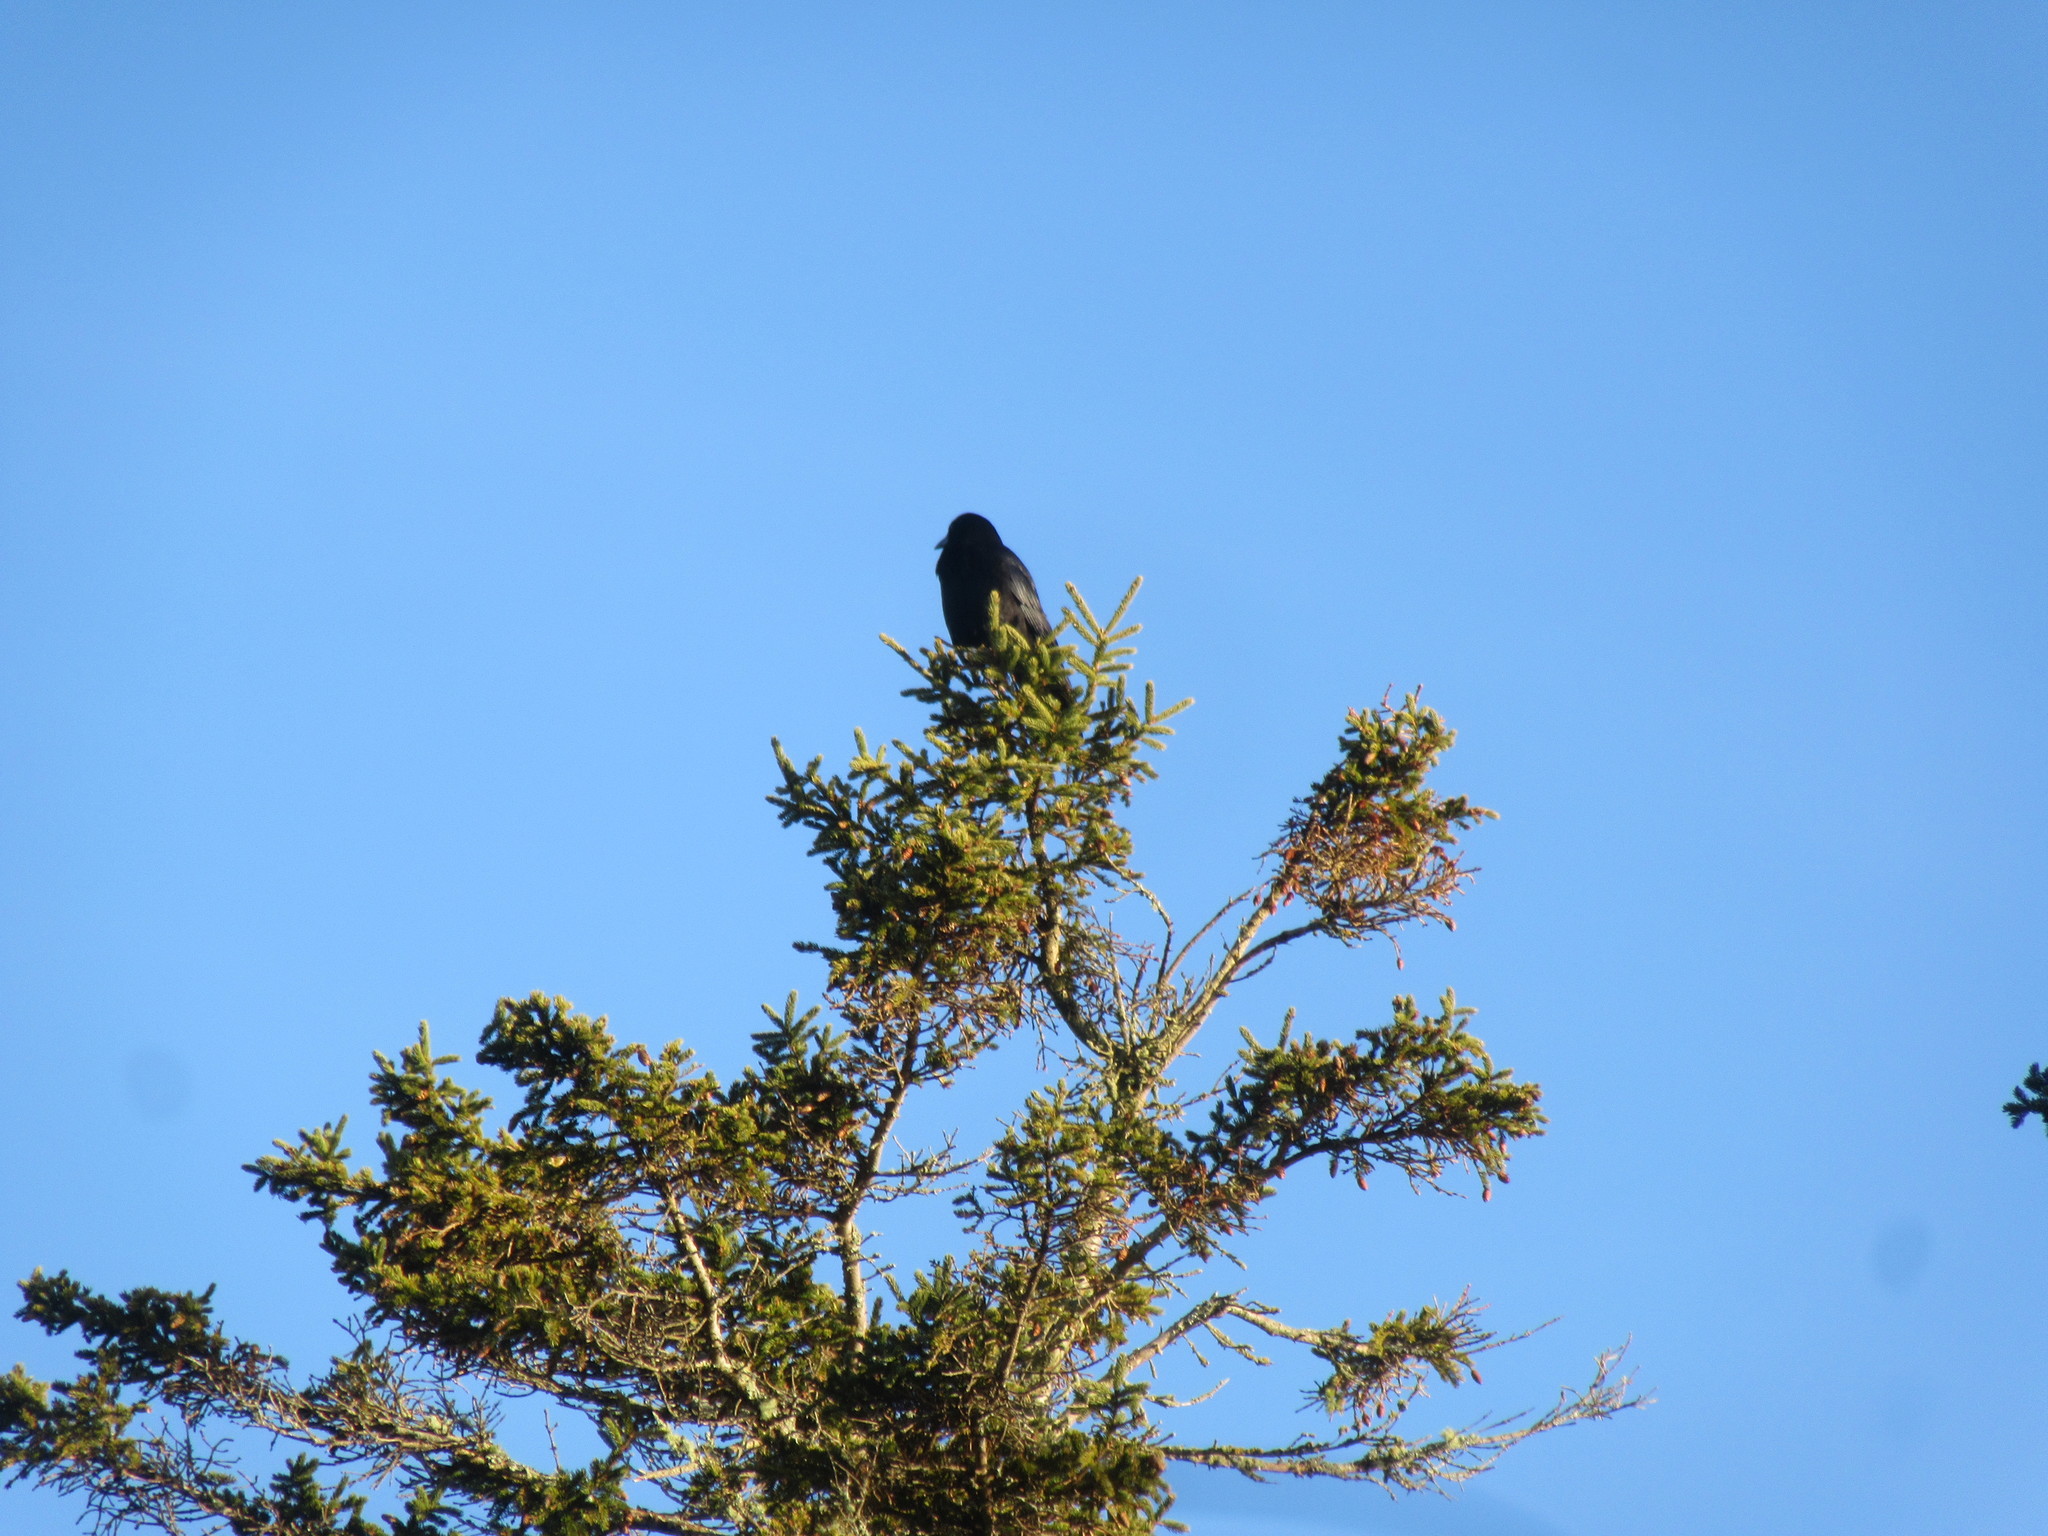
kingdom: Animalia
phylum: Chordata
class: Aves
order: Passeriformes
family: Corvidae
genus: Corvus
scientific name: Corvus brachyrhynchos
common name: American crow
